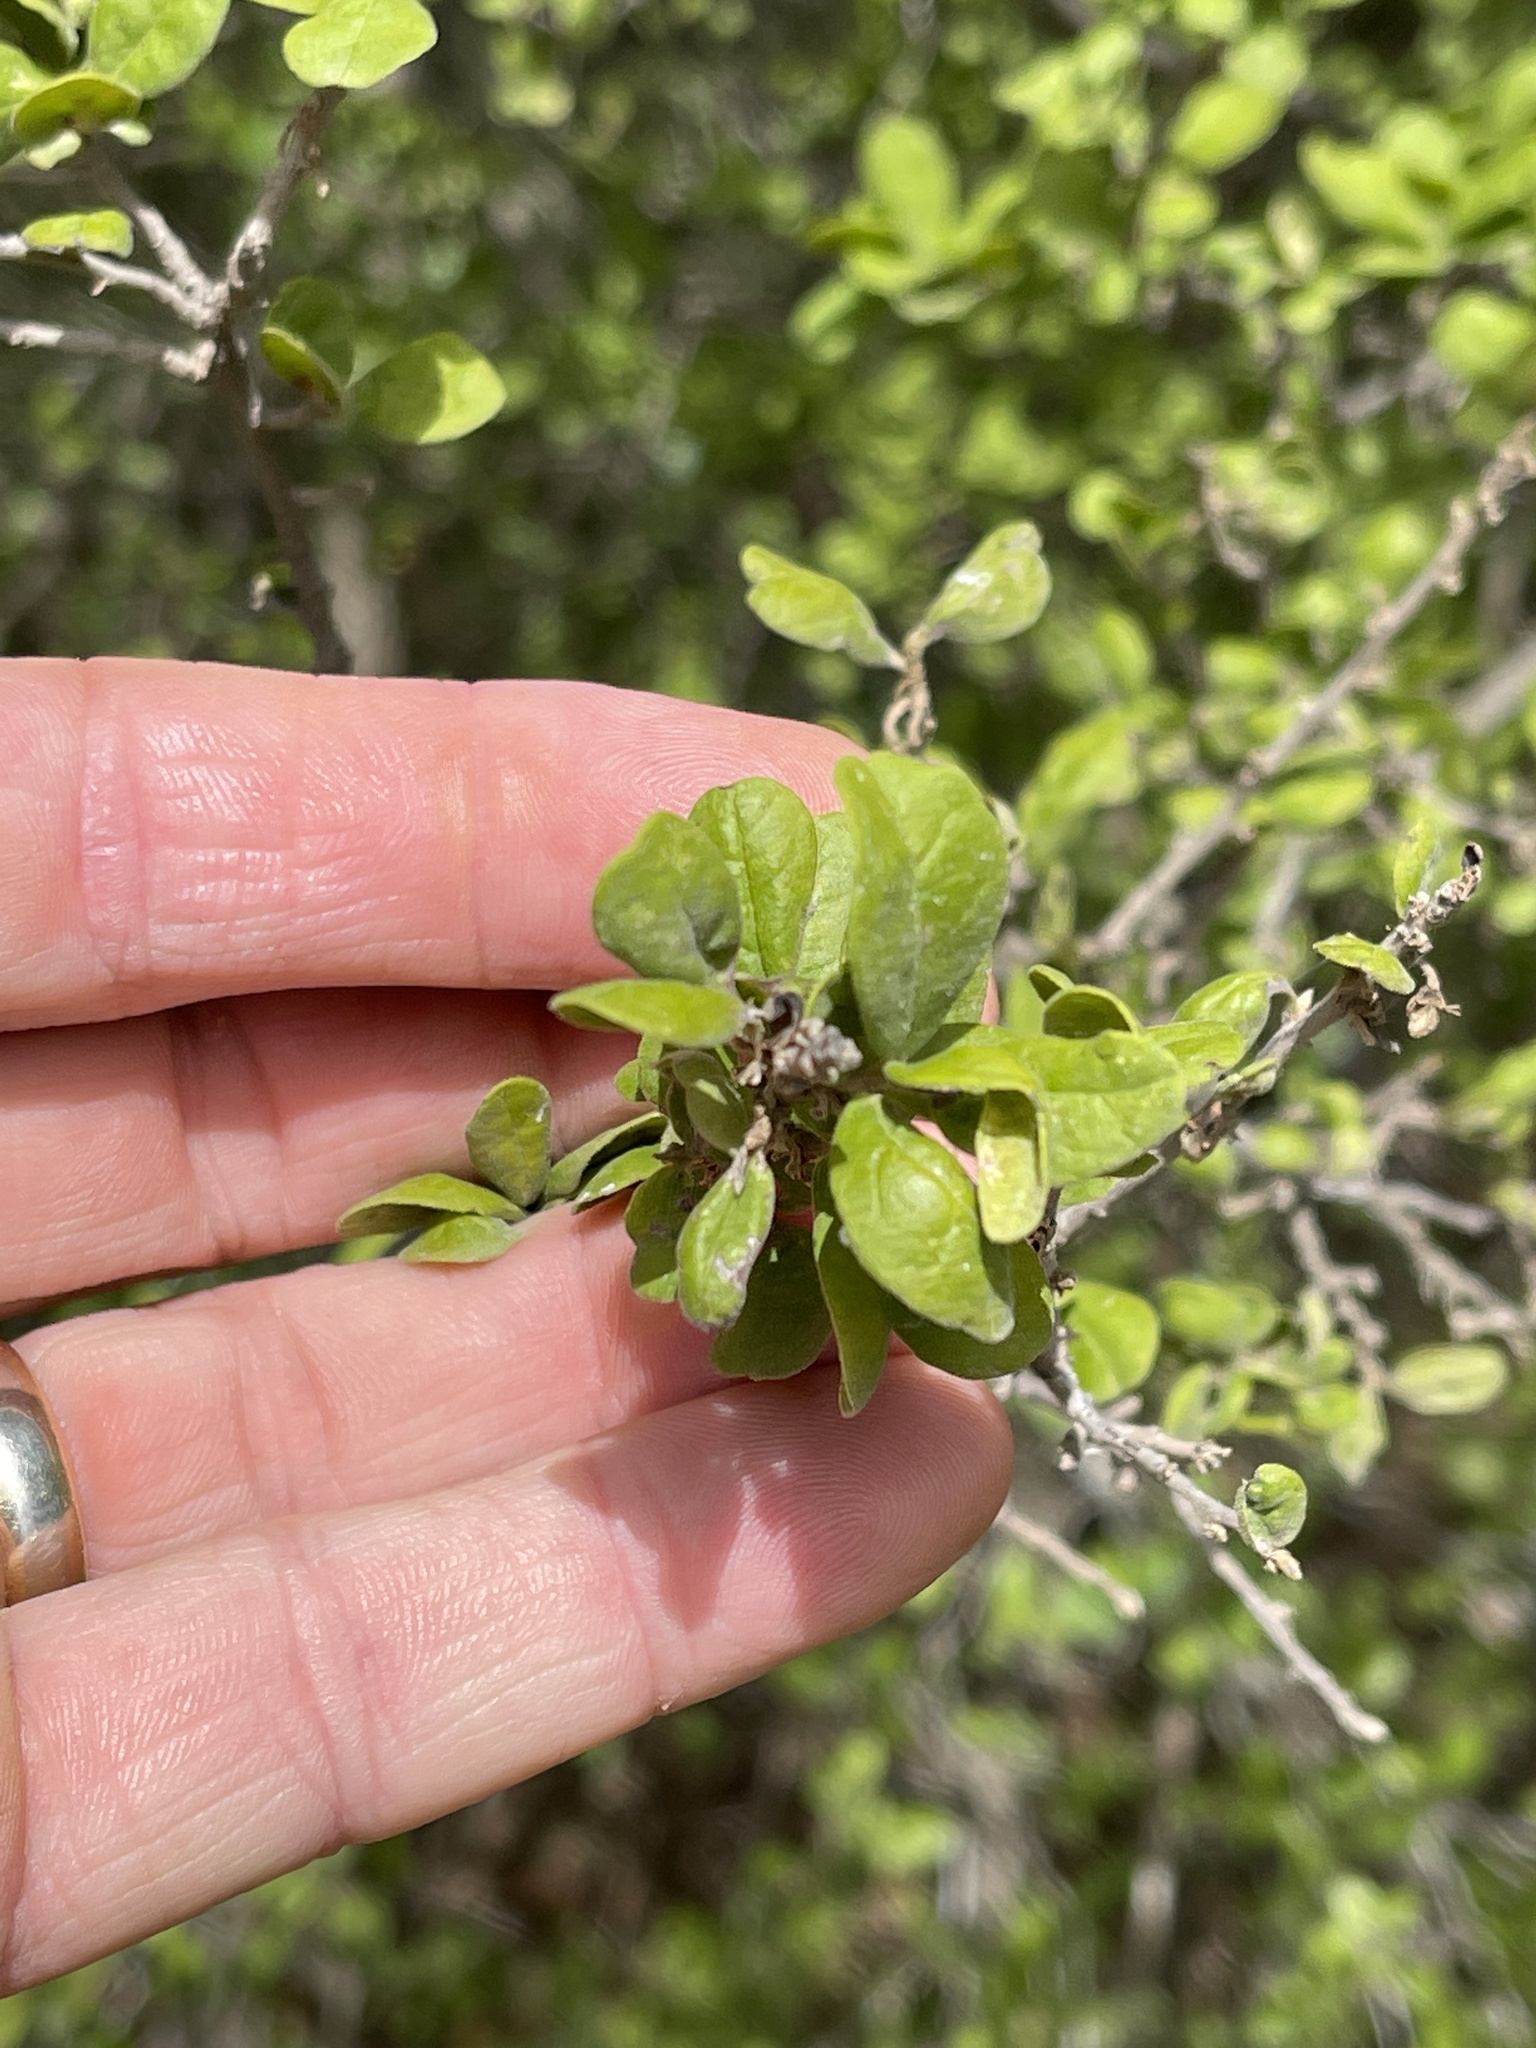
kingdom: Plantae
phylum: Tracheophyta
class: Magnoliopsida
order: Ericales
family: Ebenaceae
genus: Diospyros
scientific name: Diospyros texana
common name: Texas persimmon
